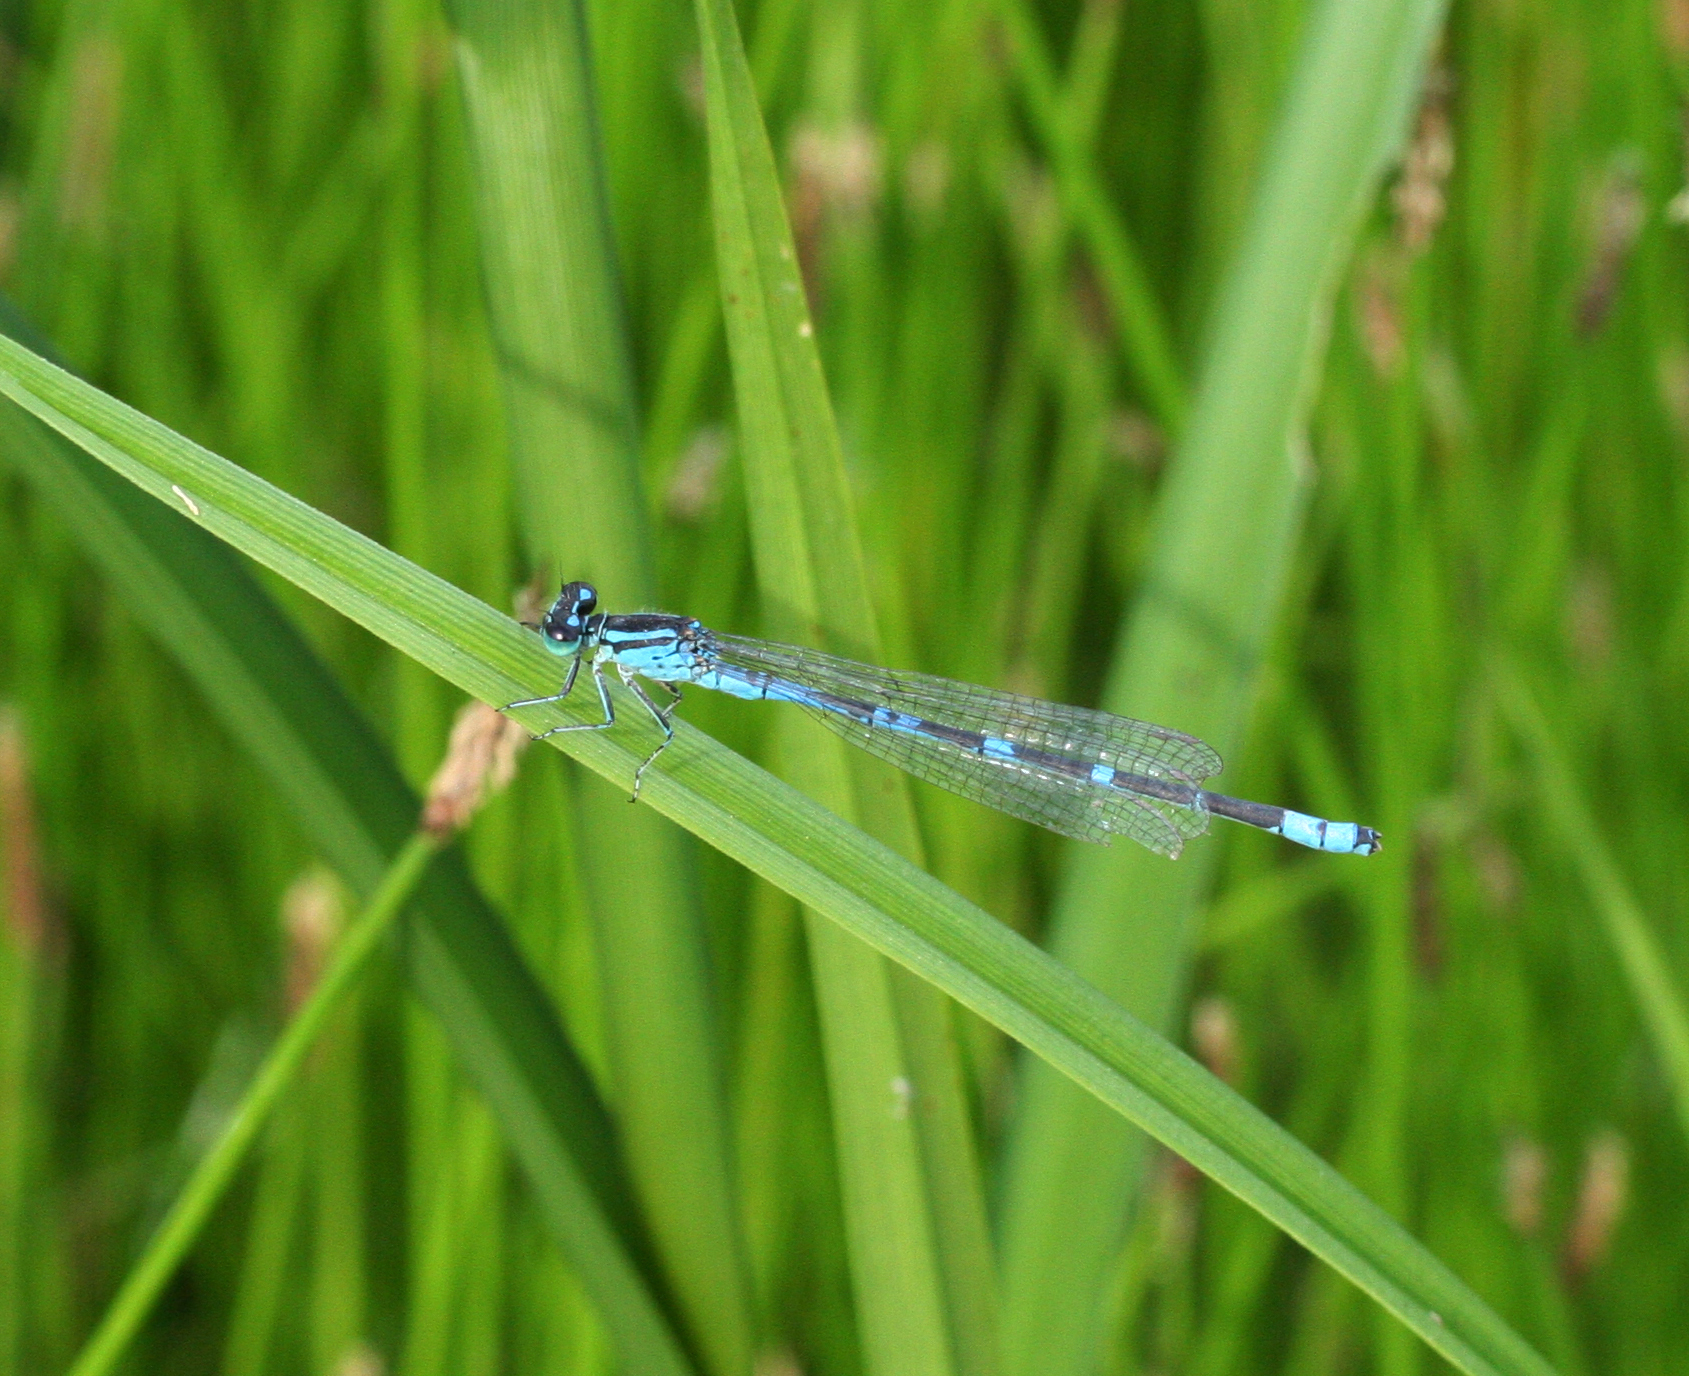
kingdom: Animalia
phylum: Arthropoda
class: Insecta
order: Odonata
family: Coenagrionidae
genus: Coenagrion
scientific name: Coenagrion lanceolatum
